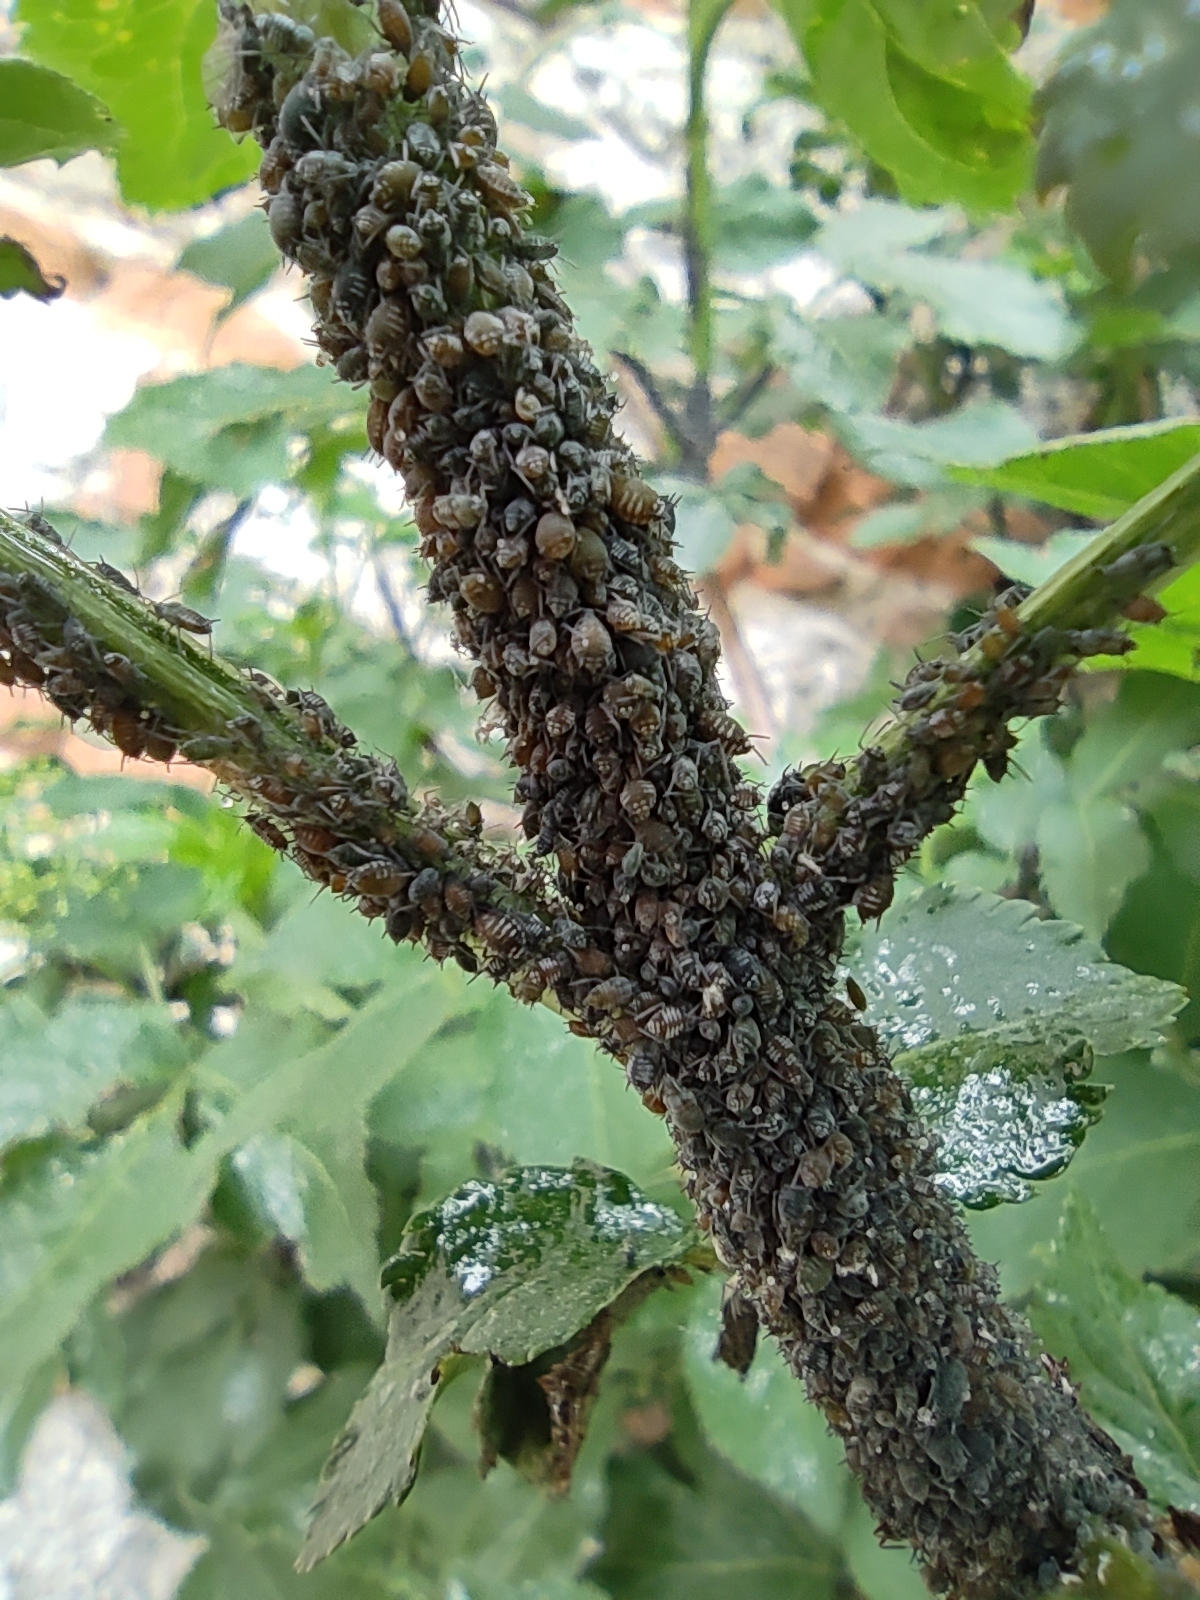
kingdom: Animalia
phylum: Arthropoda
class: Insecta
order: Hemiptera
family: Aphididae
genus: Aphis
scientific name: Aphis sambuci
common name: Elder aphid
